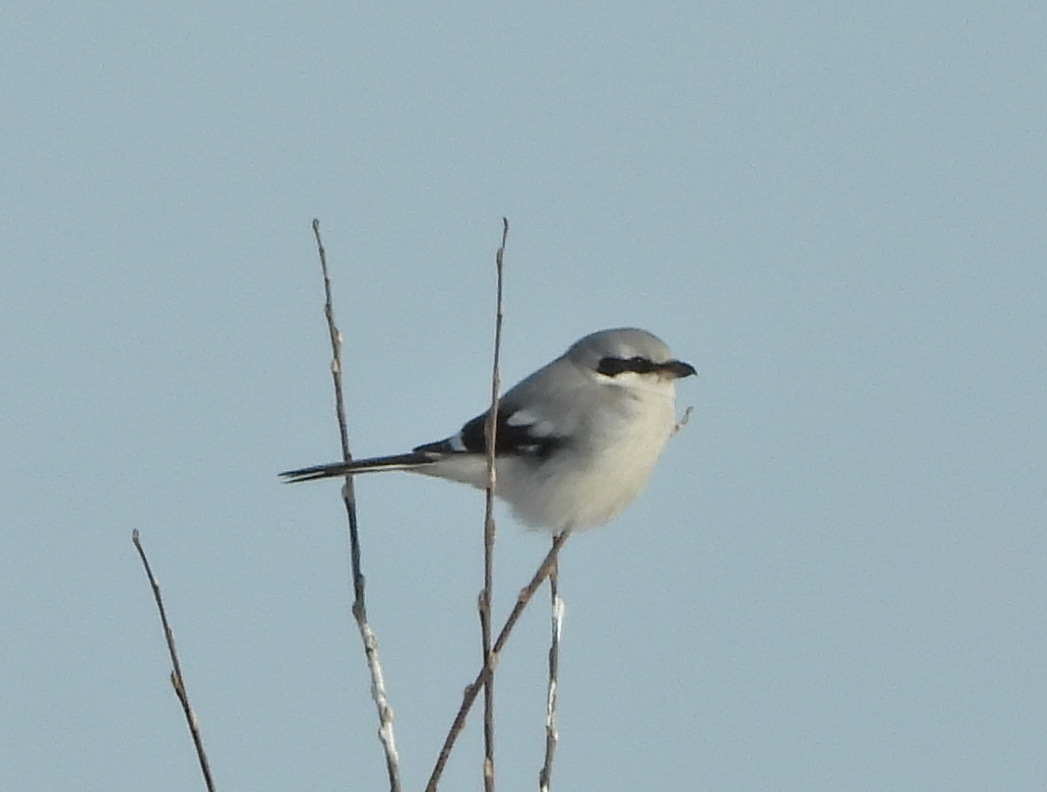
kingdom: Animalia
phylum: Chordata
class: Aves
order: Passeriformes
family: Laniidae
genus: Lanius
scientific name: Lanius excubitor
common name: Great grey shrike
